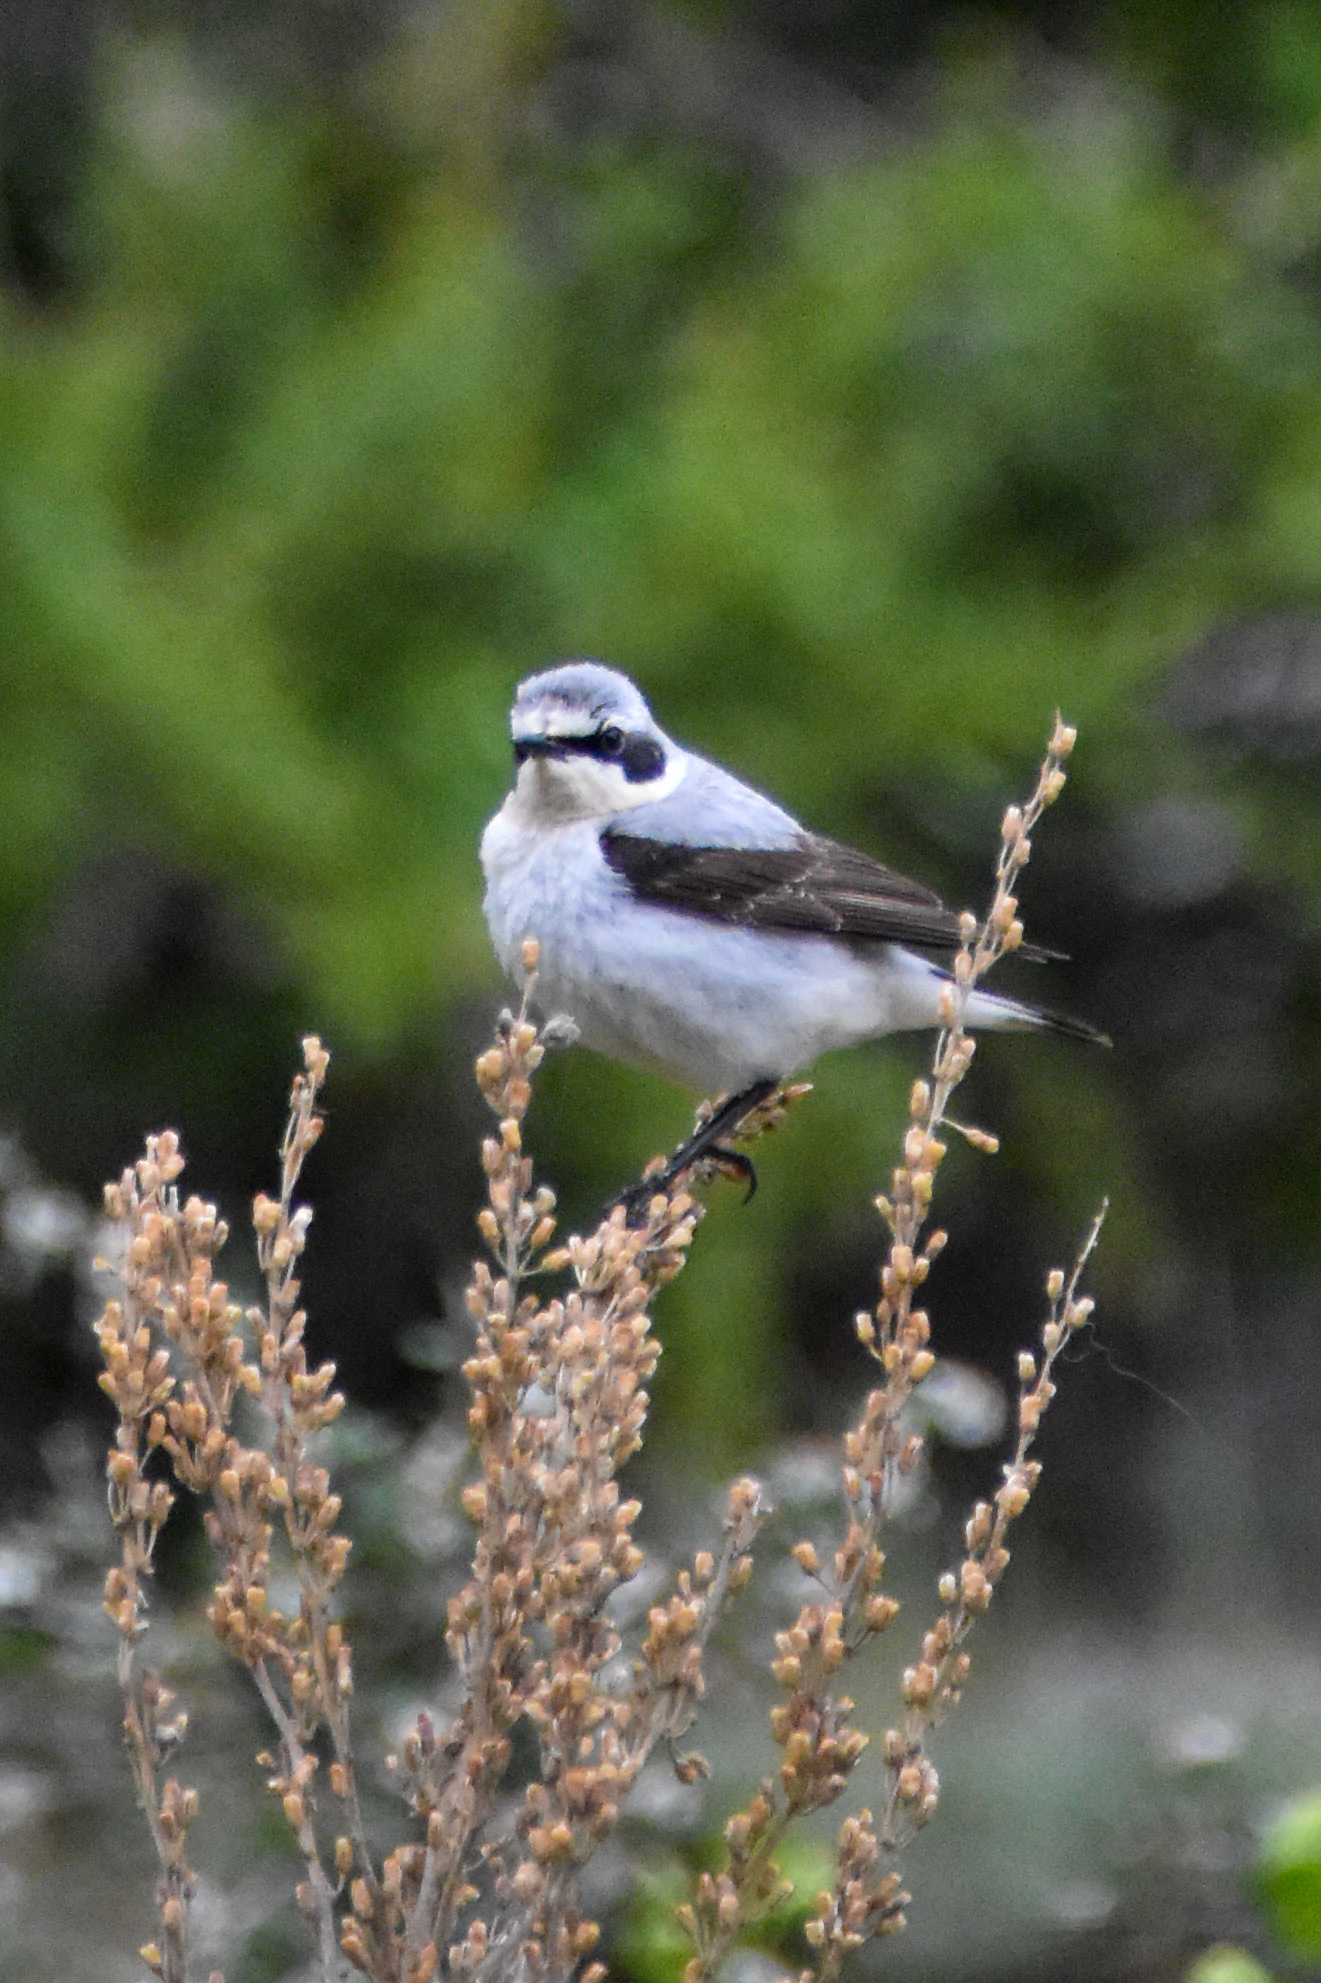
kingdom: Animalia
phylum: Chordata
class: Aves
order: Passeriformes
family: Muscicapidae
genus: Oenanthe
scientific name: Oenanthe oenanthe
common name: Northern wheatear
